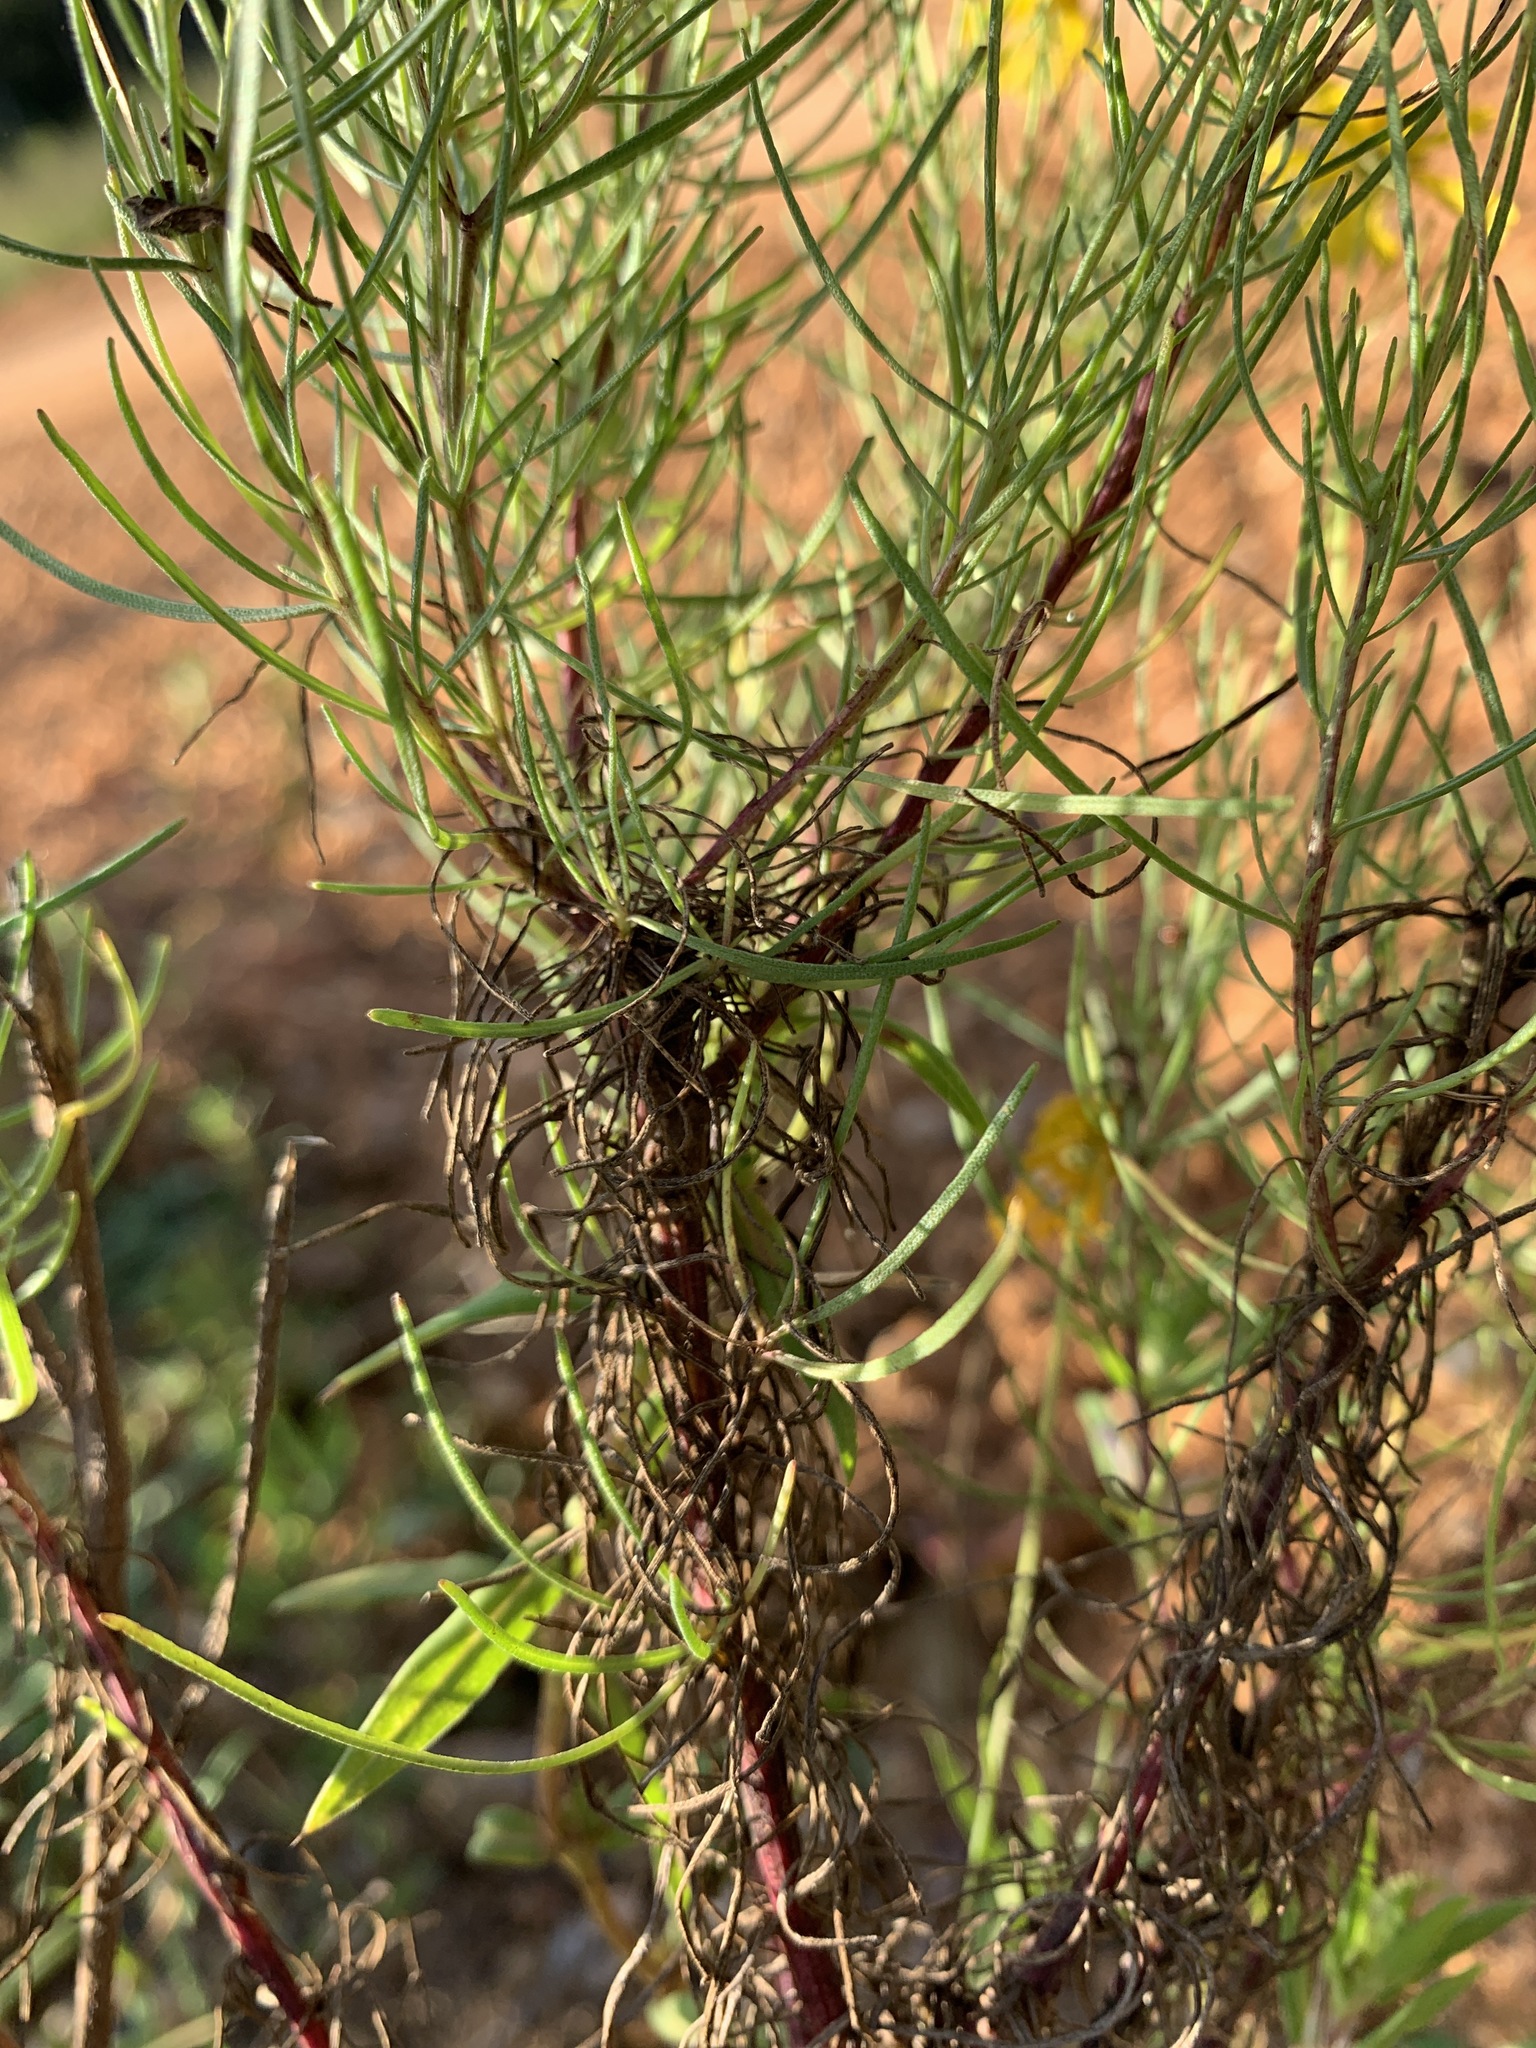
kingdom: Plantae
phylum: Tracheophyta
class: Magnoliopsida
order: Asterales
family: Asteraceae
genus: Helenium
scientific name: Helenium amarum
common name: Bitter sneezeweed
